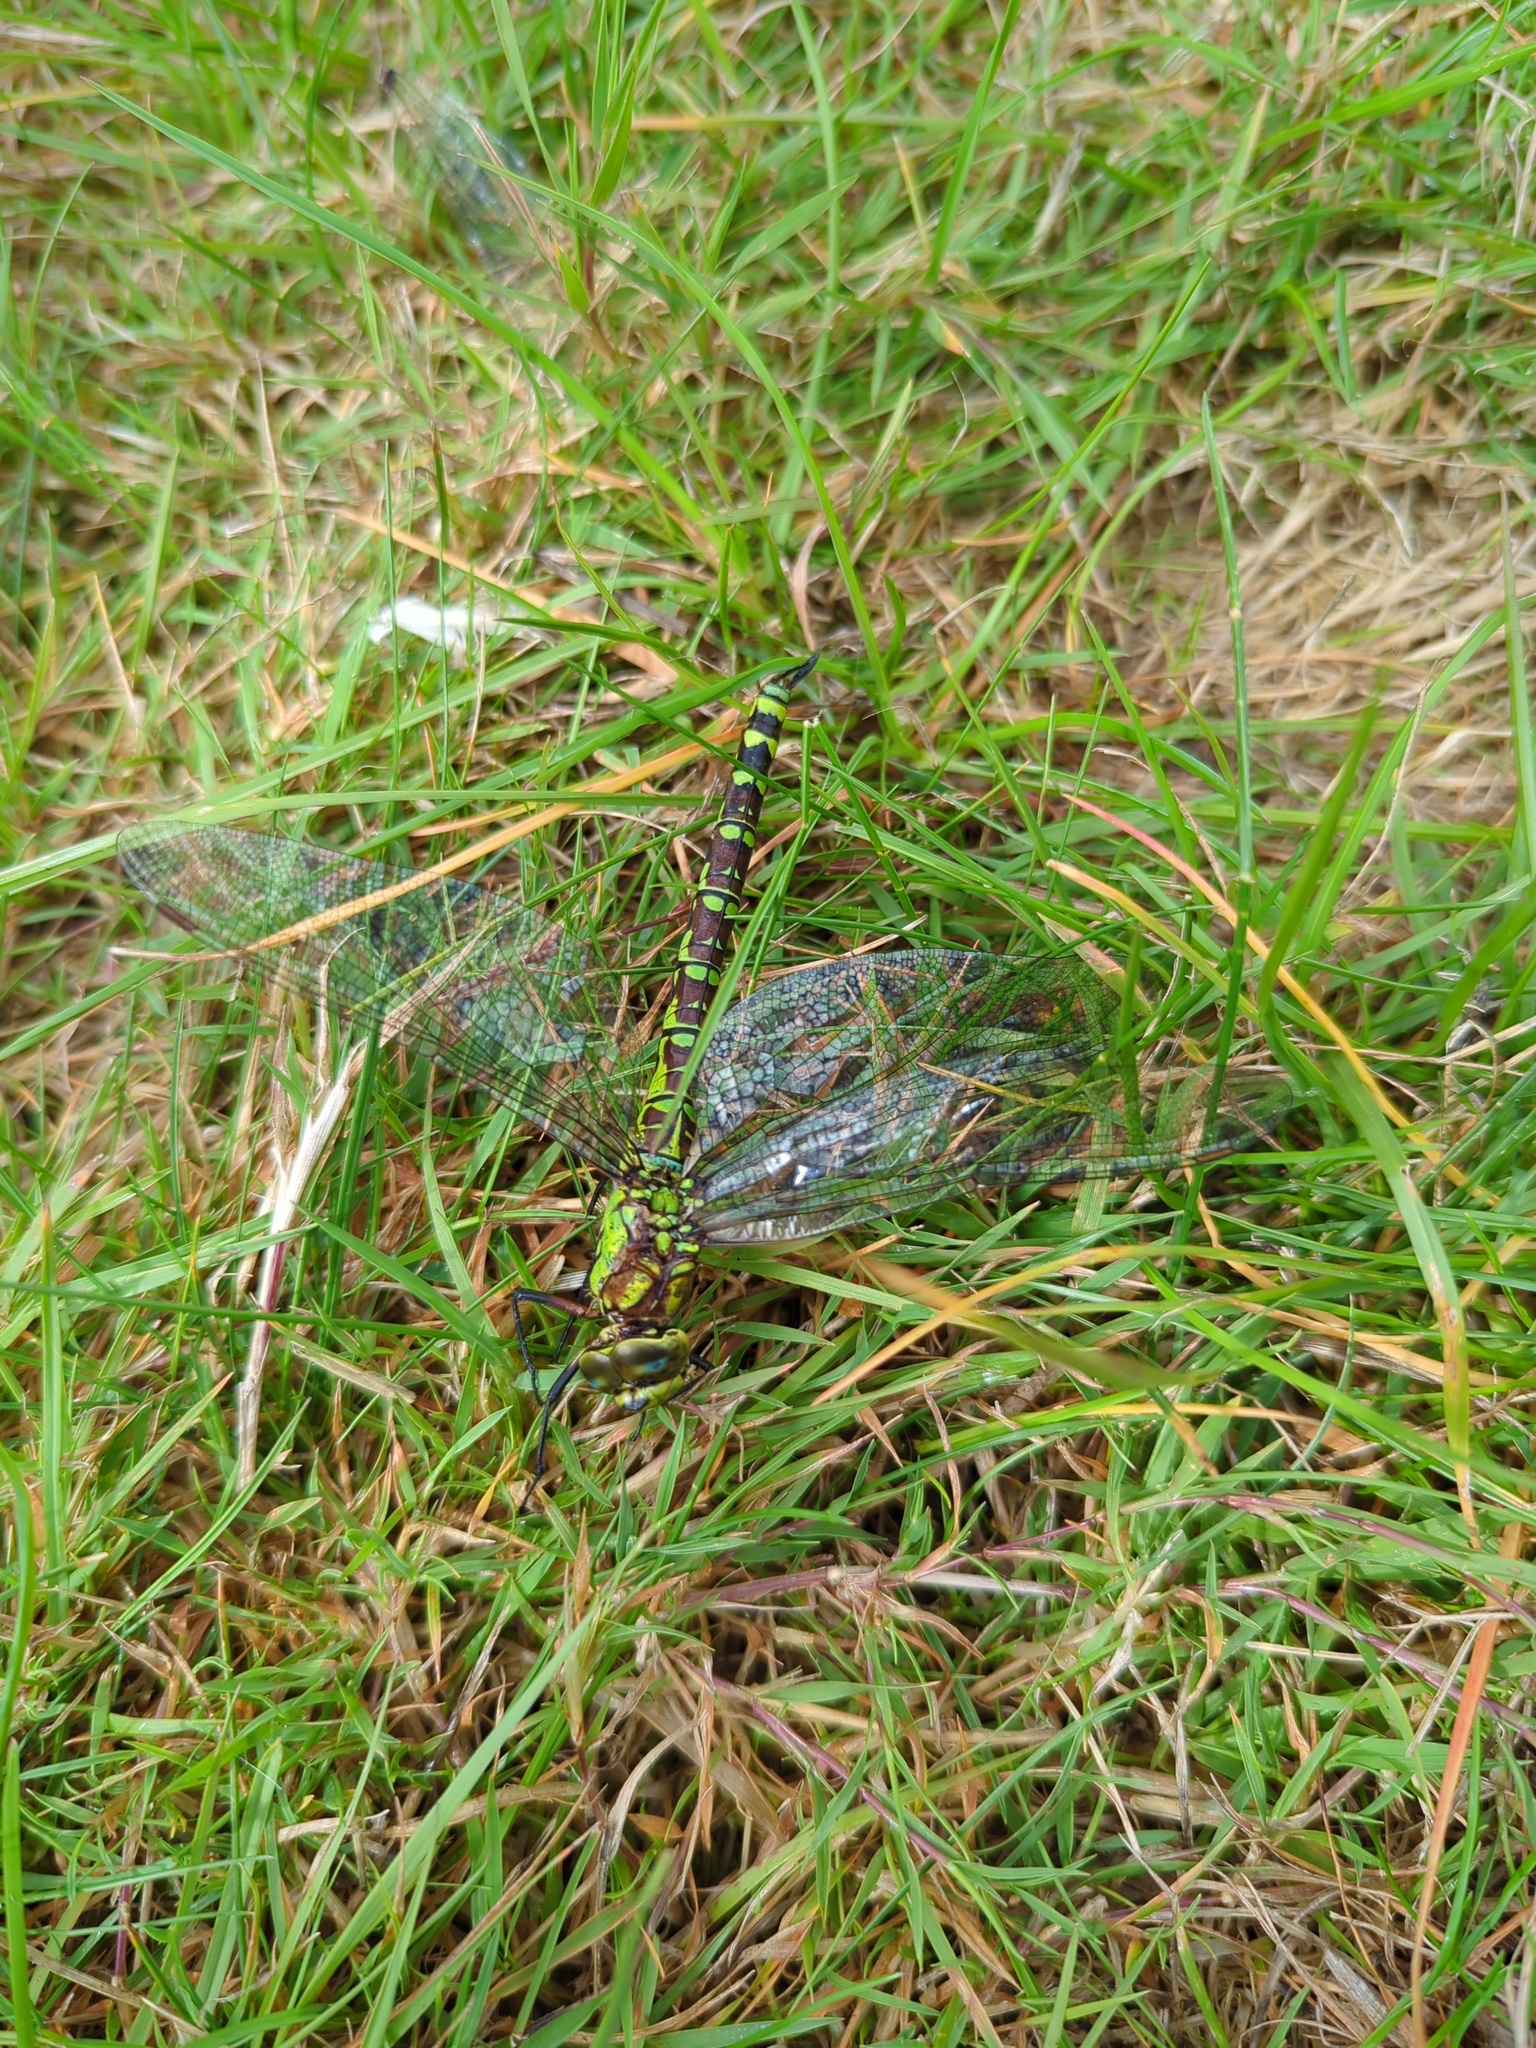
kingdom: Animalia
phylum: Arthropoda
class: Insecta
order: Odonata
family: Aeshnidae
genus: Aeshna
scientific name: Aeshna cyanea
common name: Southern hawker
